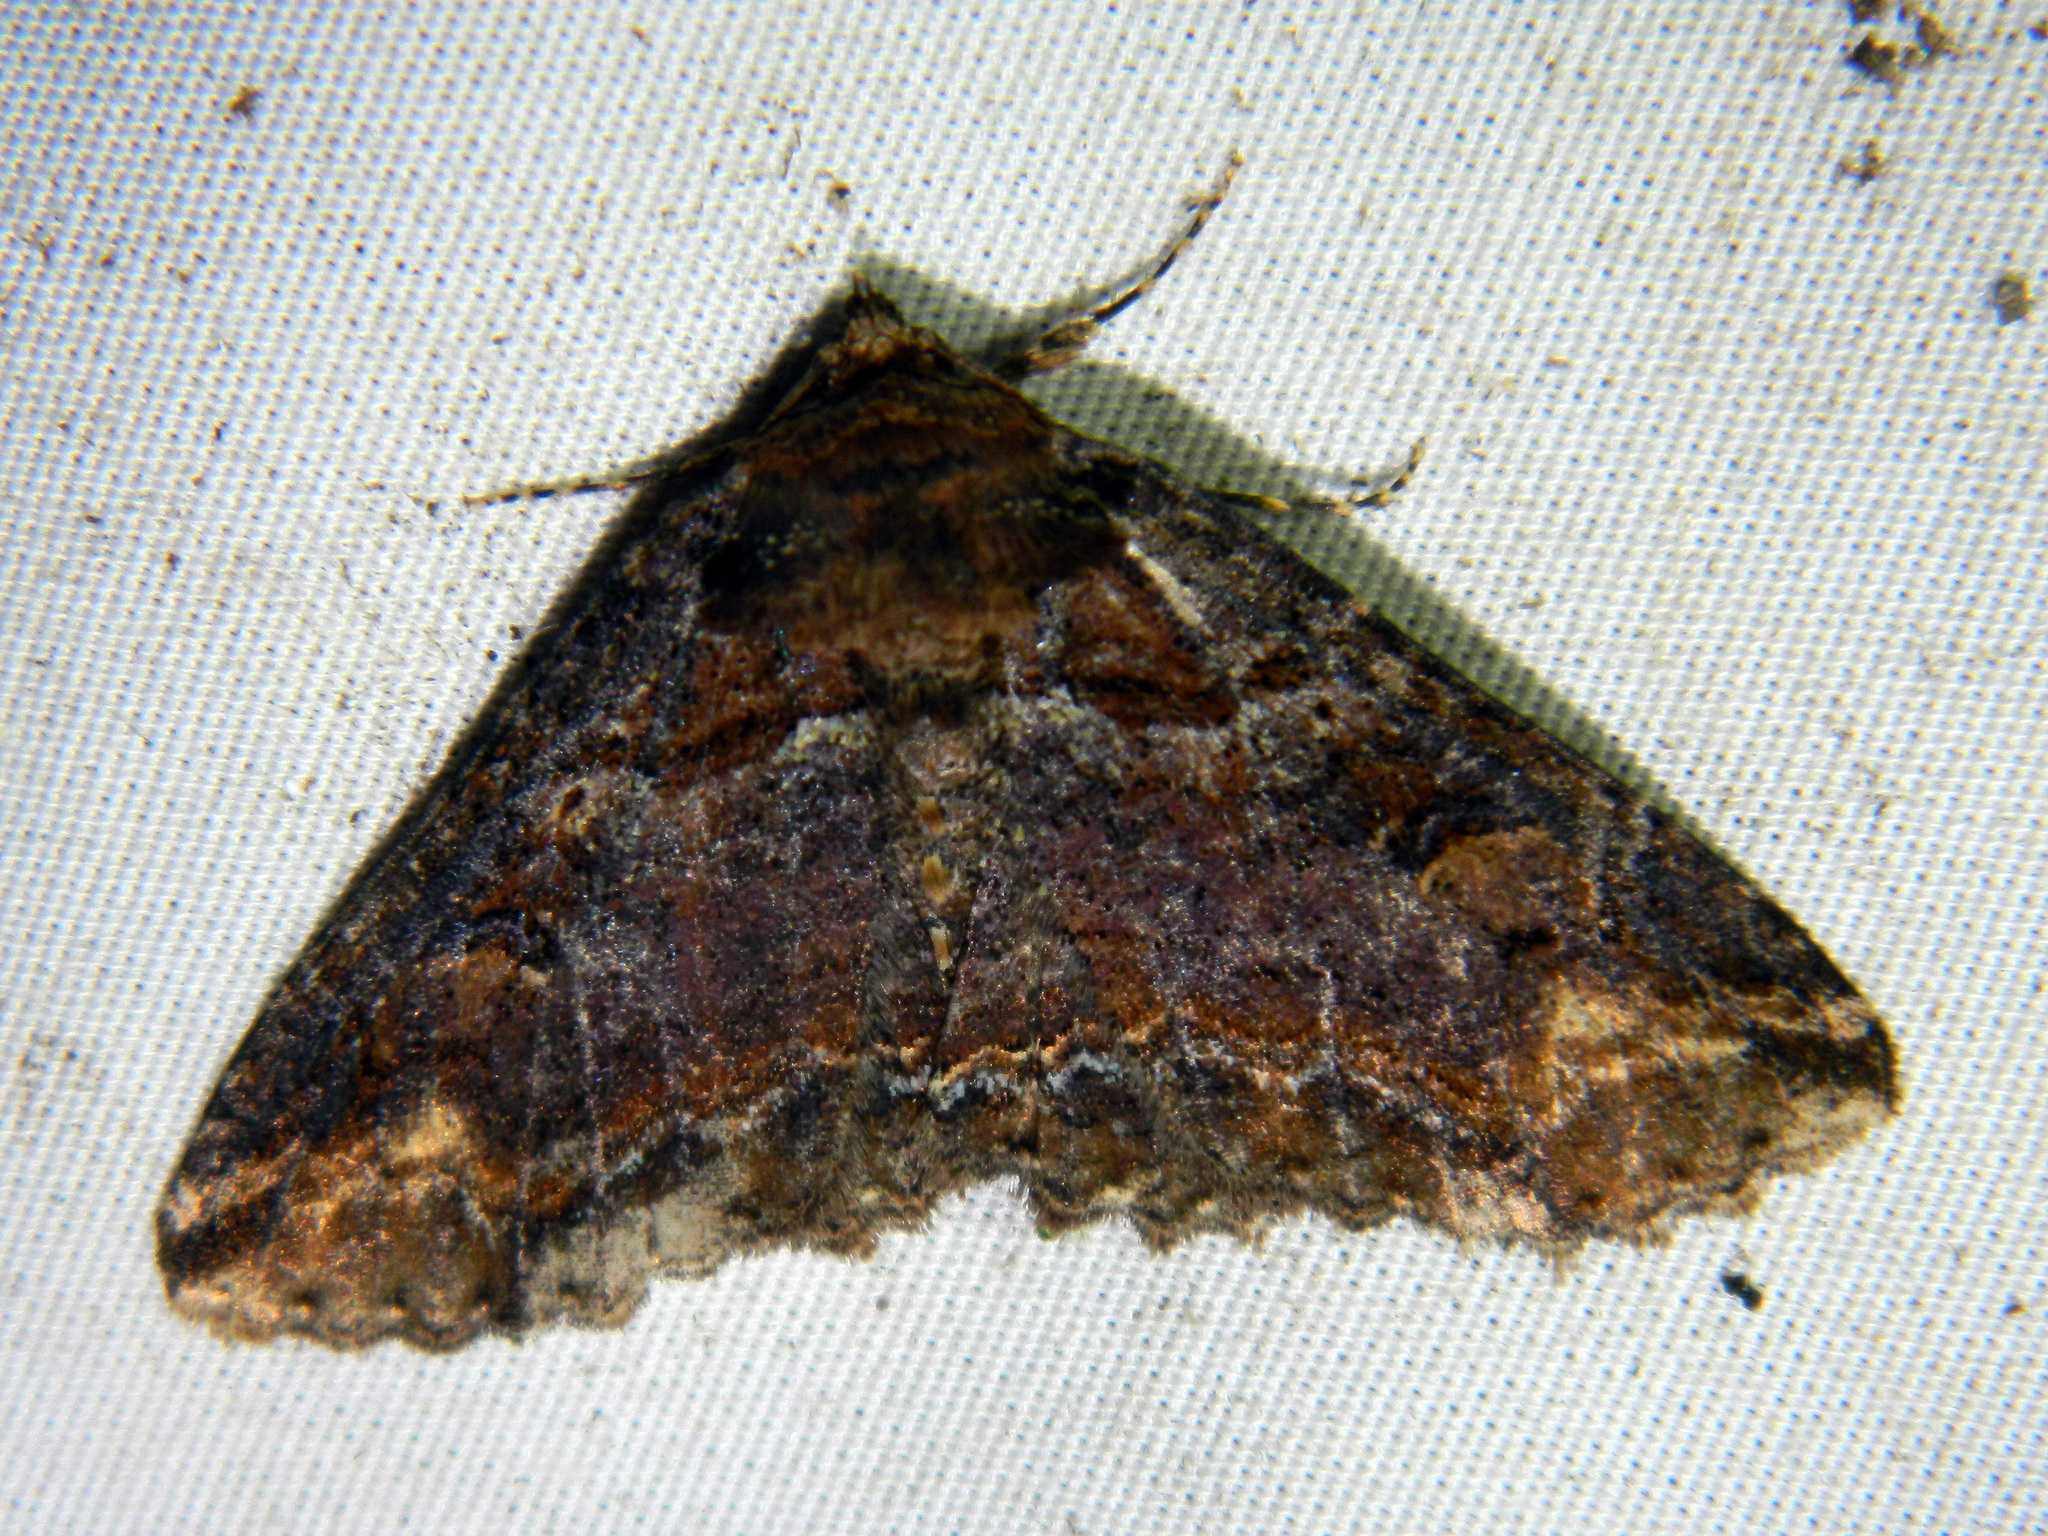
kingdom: Animalia
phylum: Arthropoda
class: Insecta
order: Lepidoptera
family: Erebidae
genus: Zale
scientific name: Zale minerea
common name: Colorful zale moth
